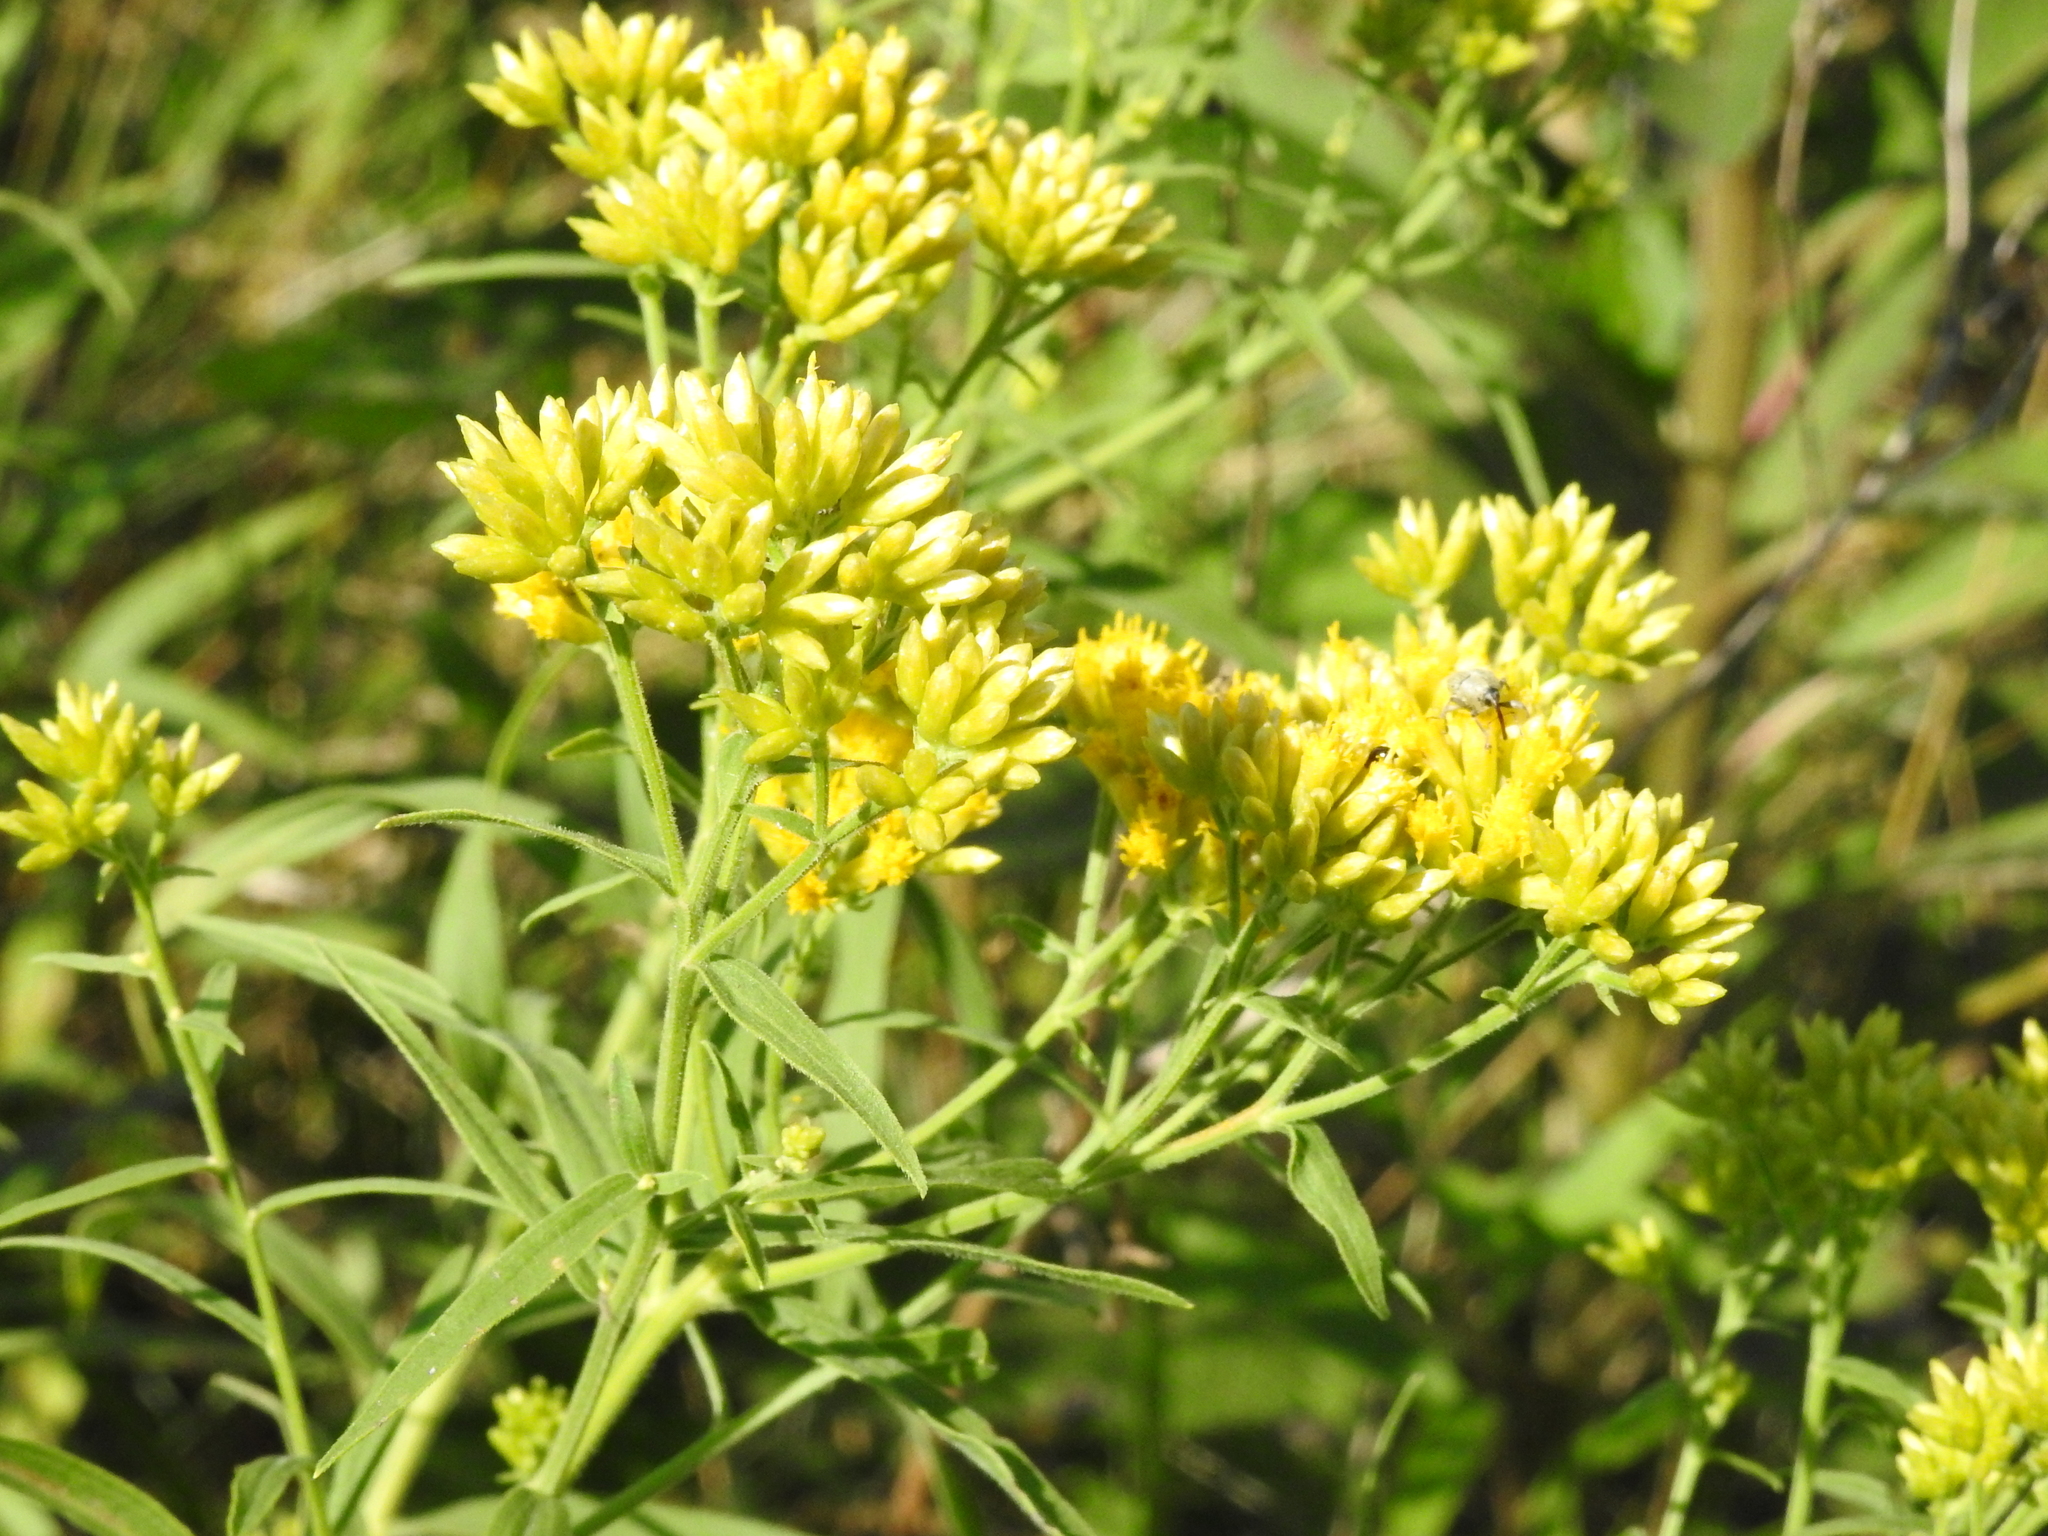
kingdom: Plantae
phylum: Tracheophyta
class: Magnoliopsida
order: Asterales
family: Asteraceae
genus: Euthamia
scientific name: Euthamia graminifolia
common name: Common goldentop
